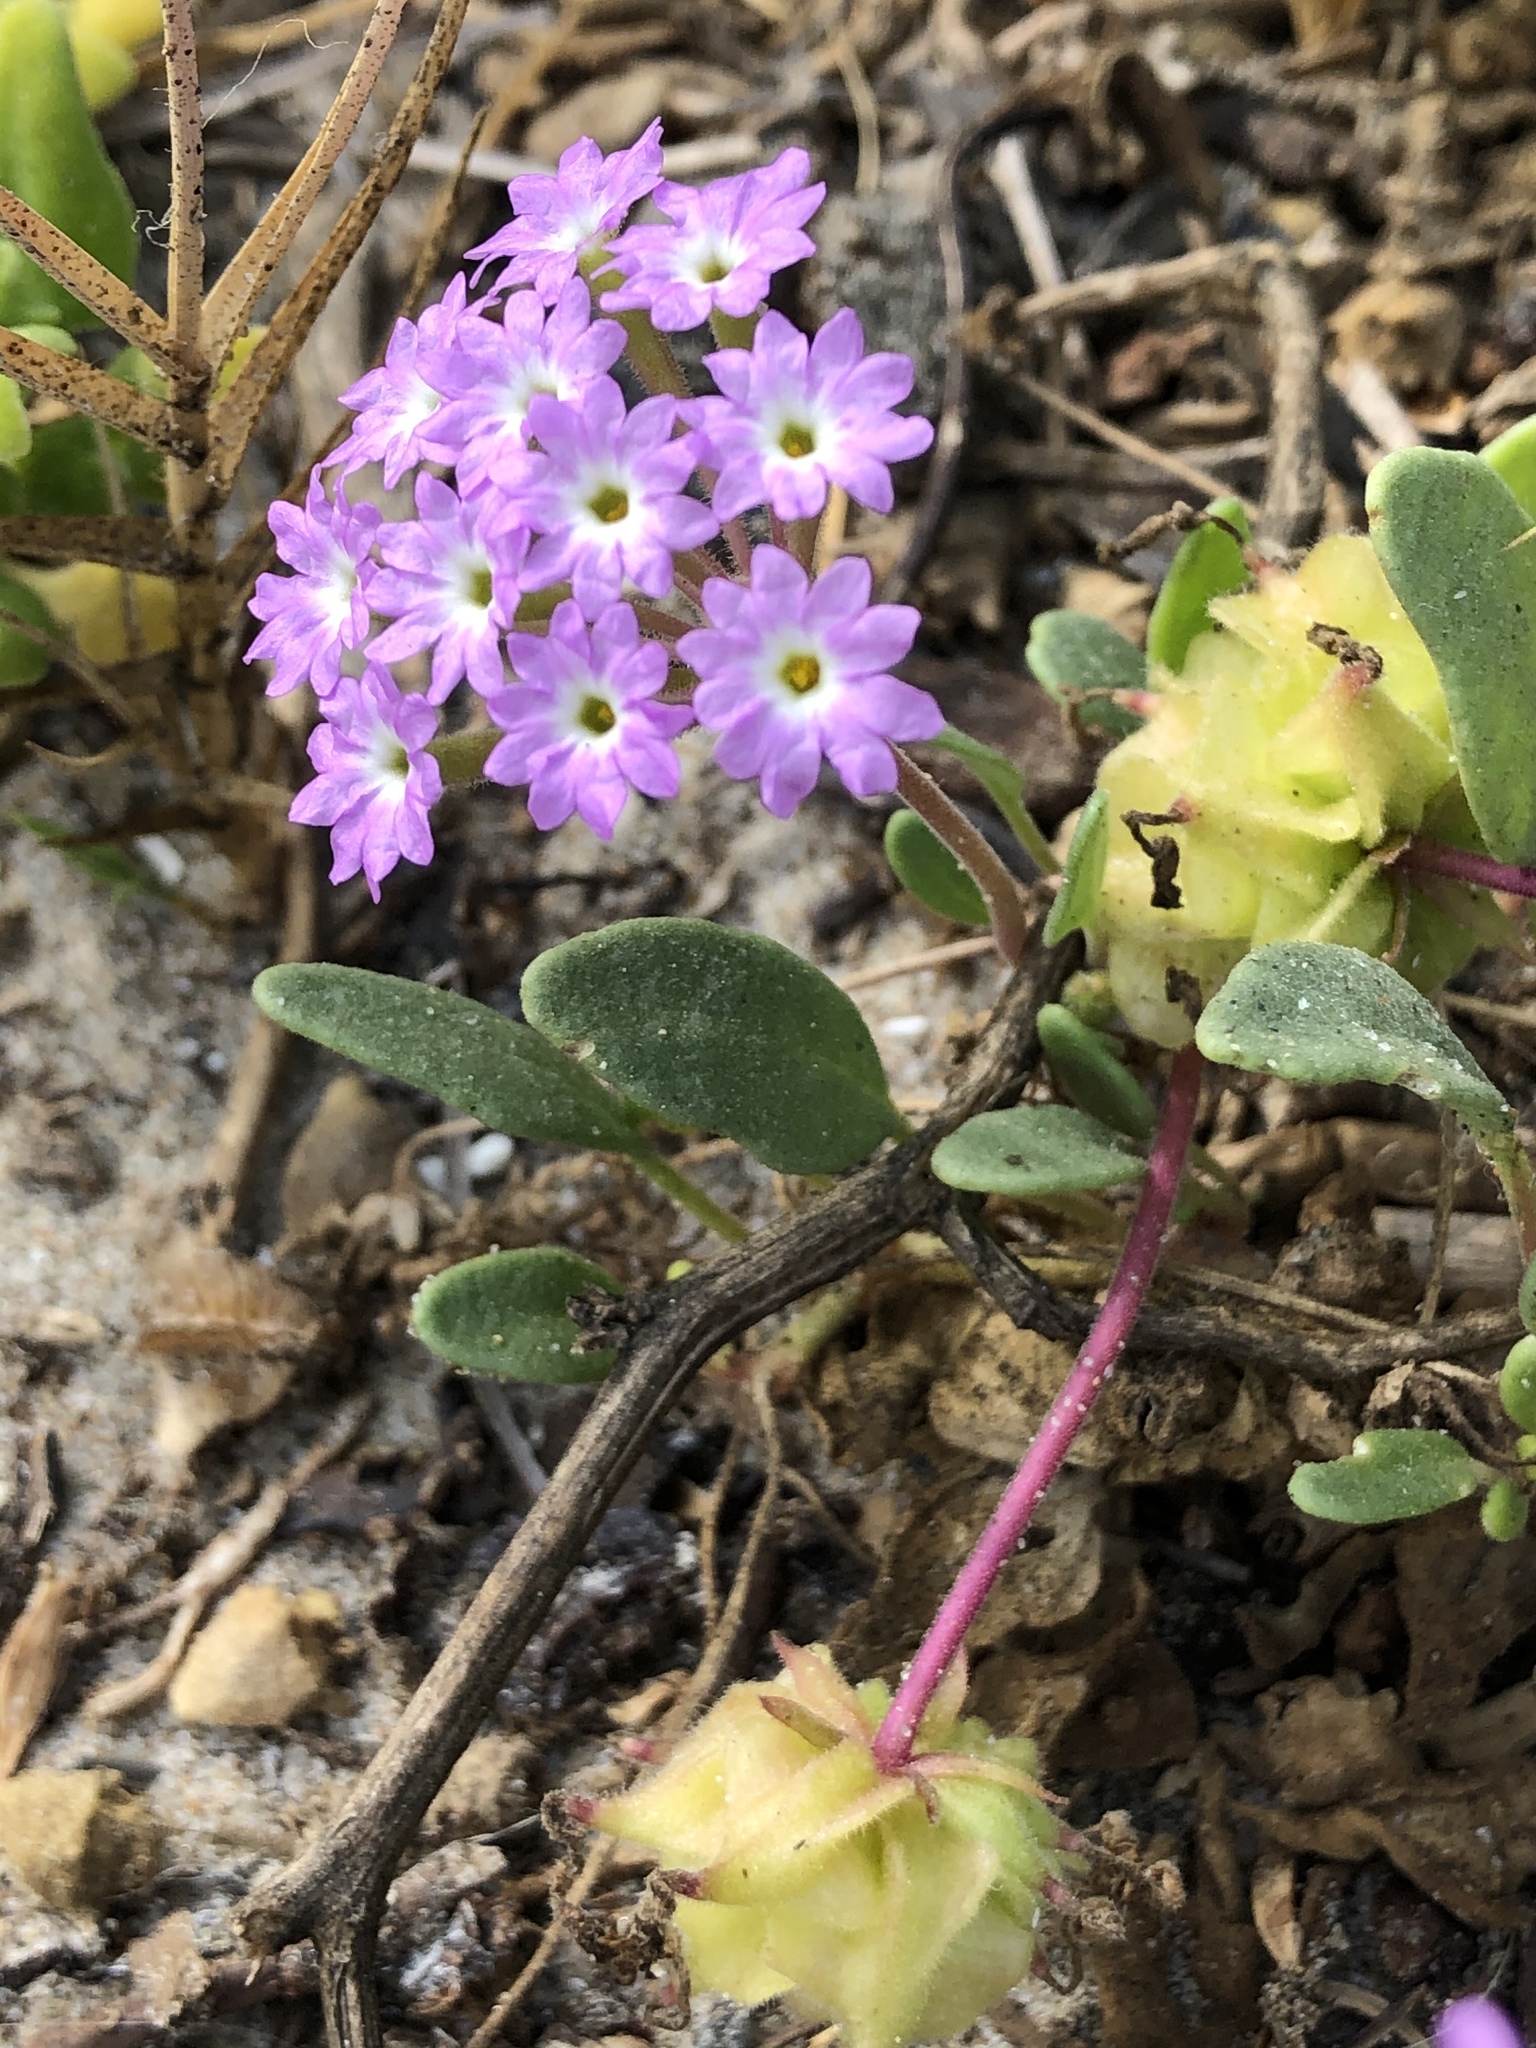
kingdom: Plantae
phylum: Tracheophyta
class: Magnoliopsida
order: Caryophyllales
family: Nyctaginaceae
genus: Abronia
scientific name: Abronia umbellata
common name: Sand-verbena
